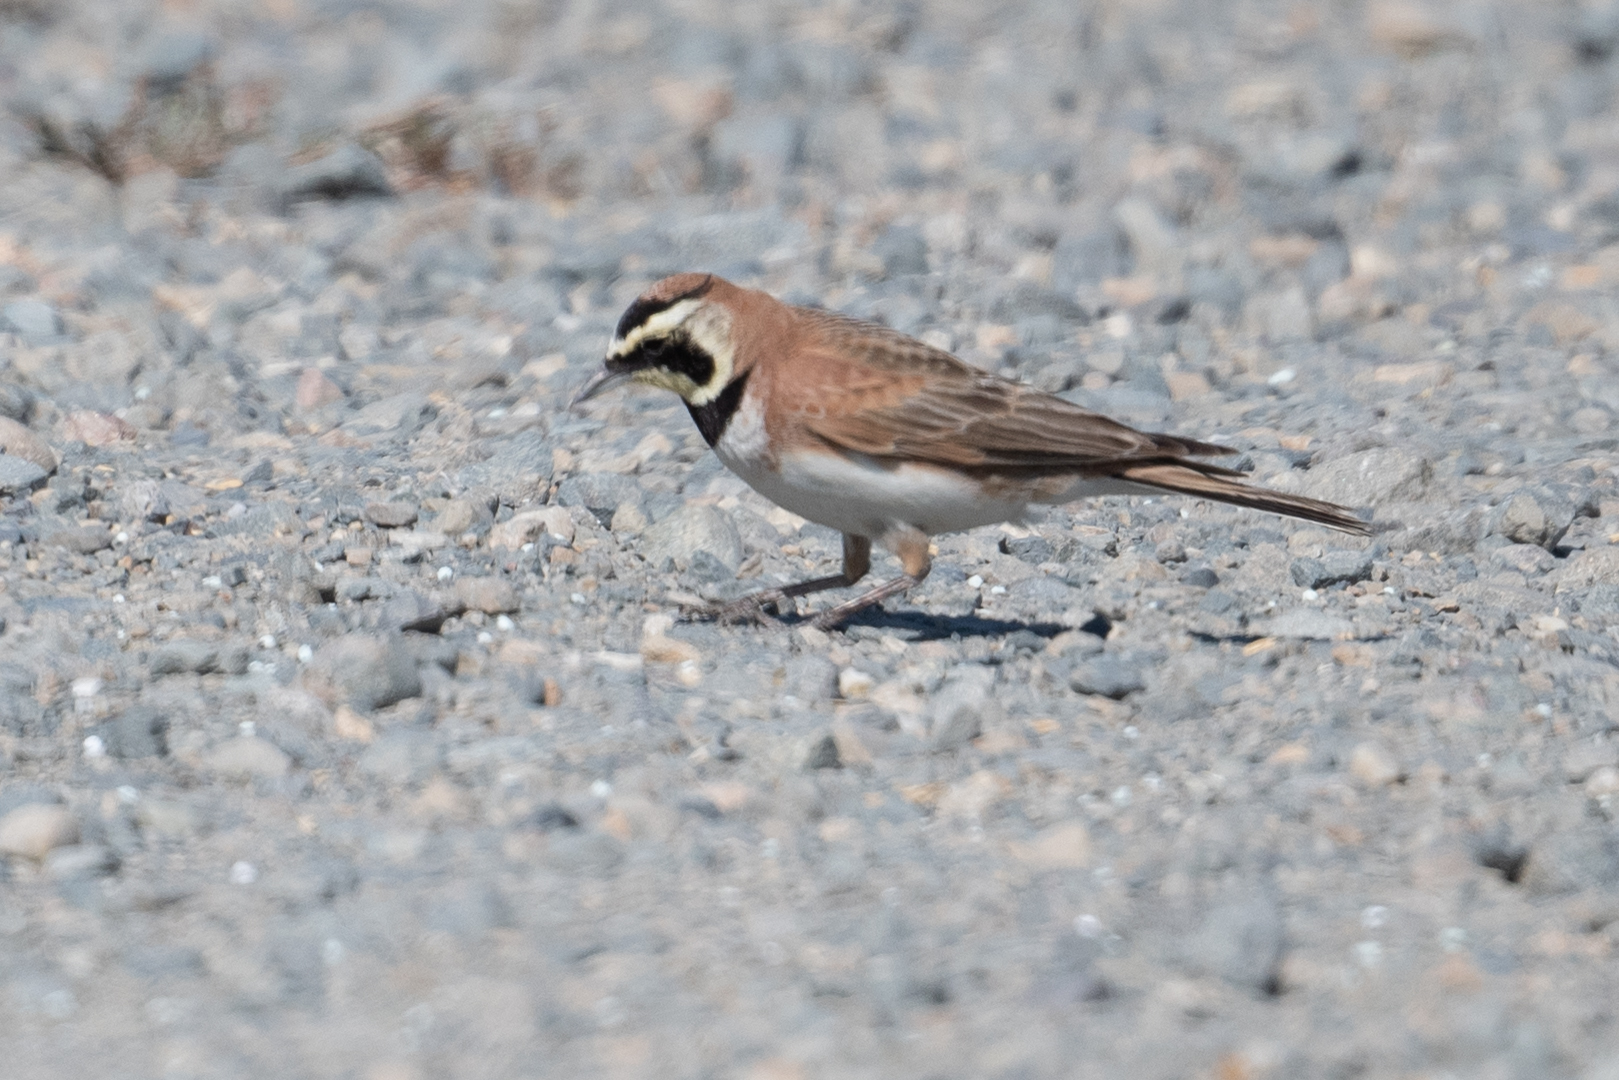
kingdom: Animalia
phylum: Chordata
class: Aves
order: Passeriformes
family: Alaudidae
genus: Eremophila
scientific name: Eremophila alpestris
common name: Horned lark
